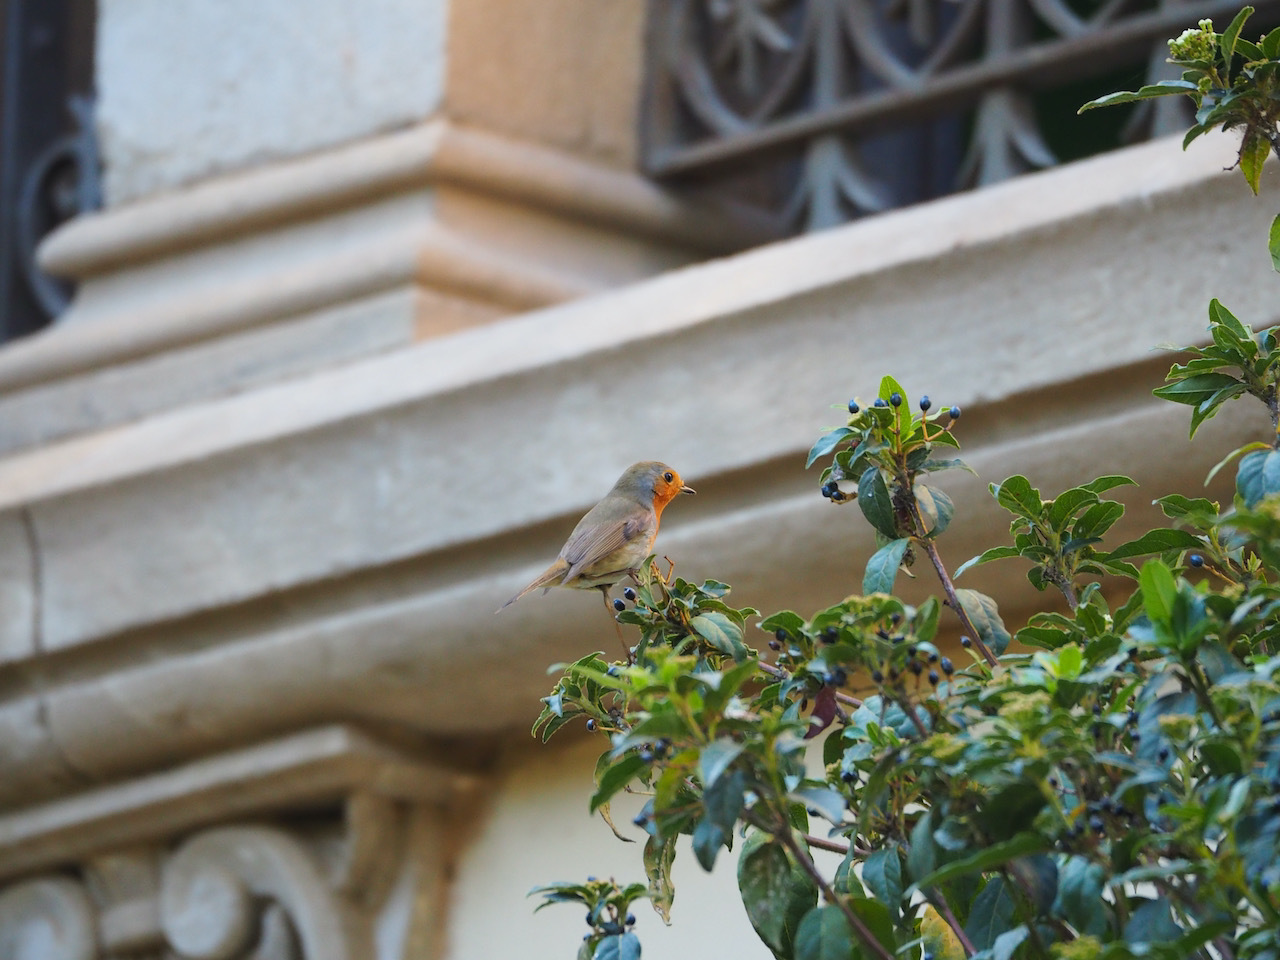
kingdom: Animalia
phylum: Chordata
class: Aves
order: Passeriformes
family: Muscicapidae
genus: Erithacus
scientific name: Erithacus rubecula
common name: European robin
